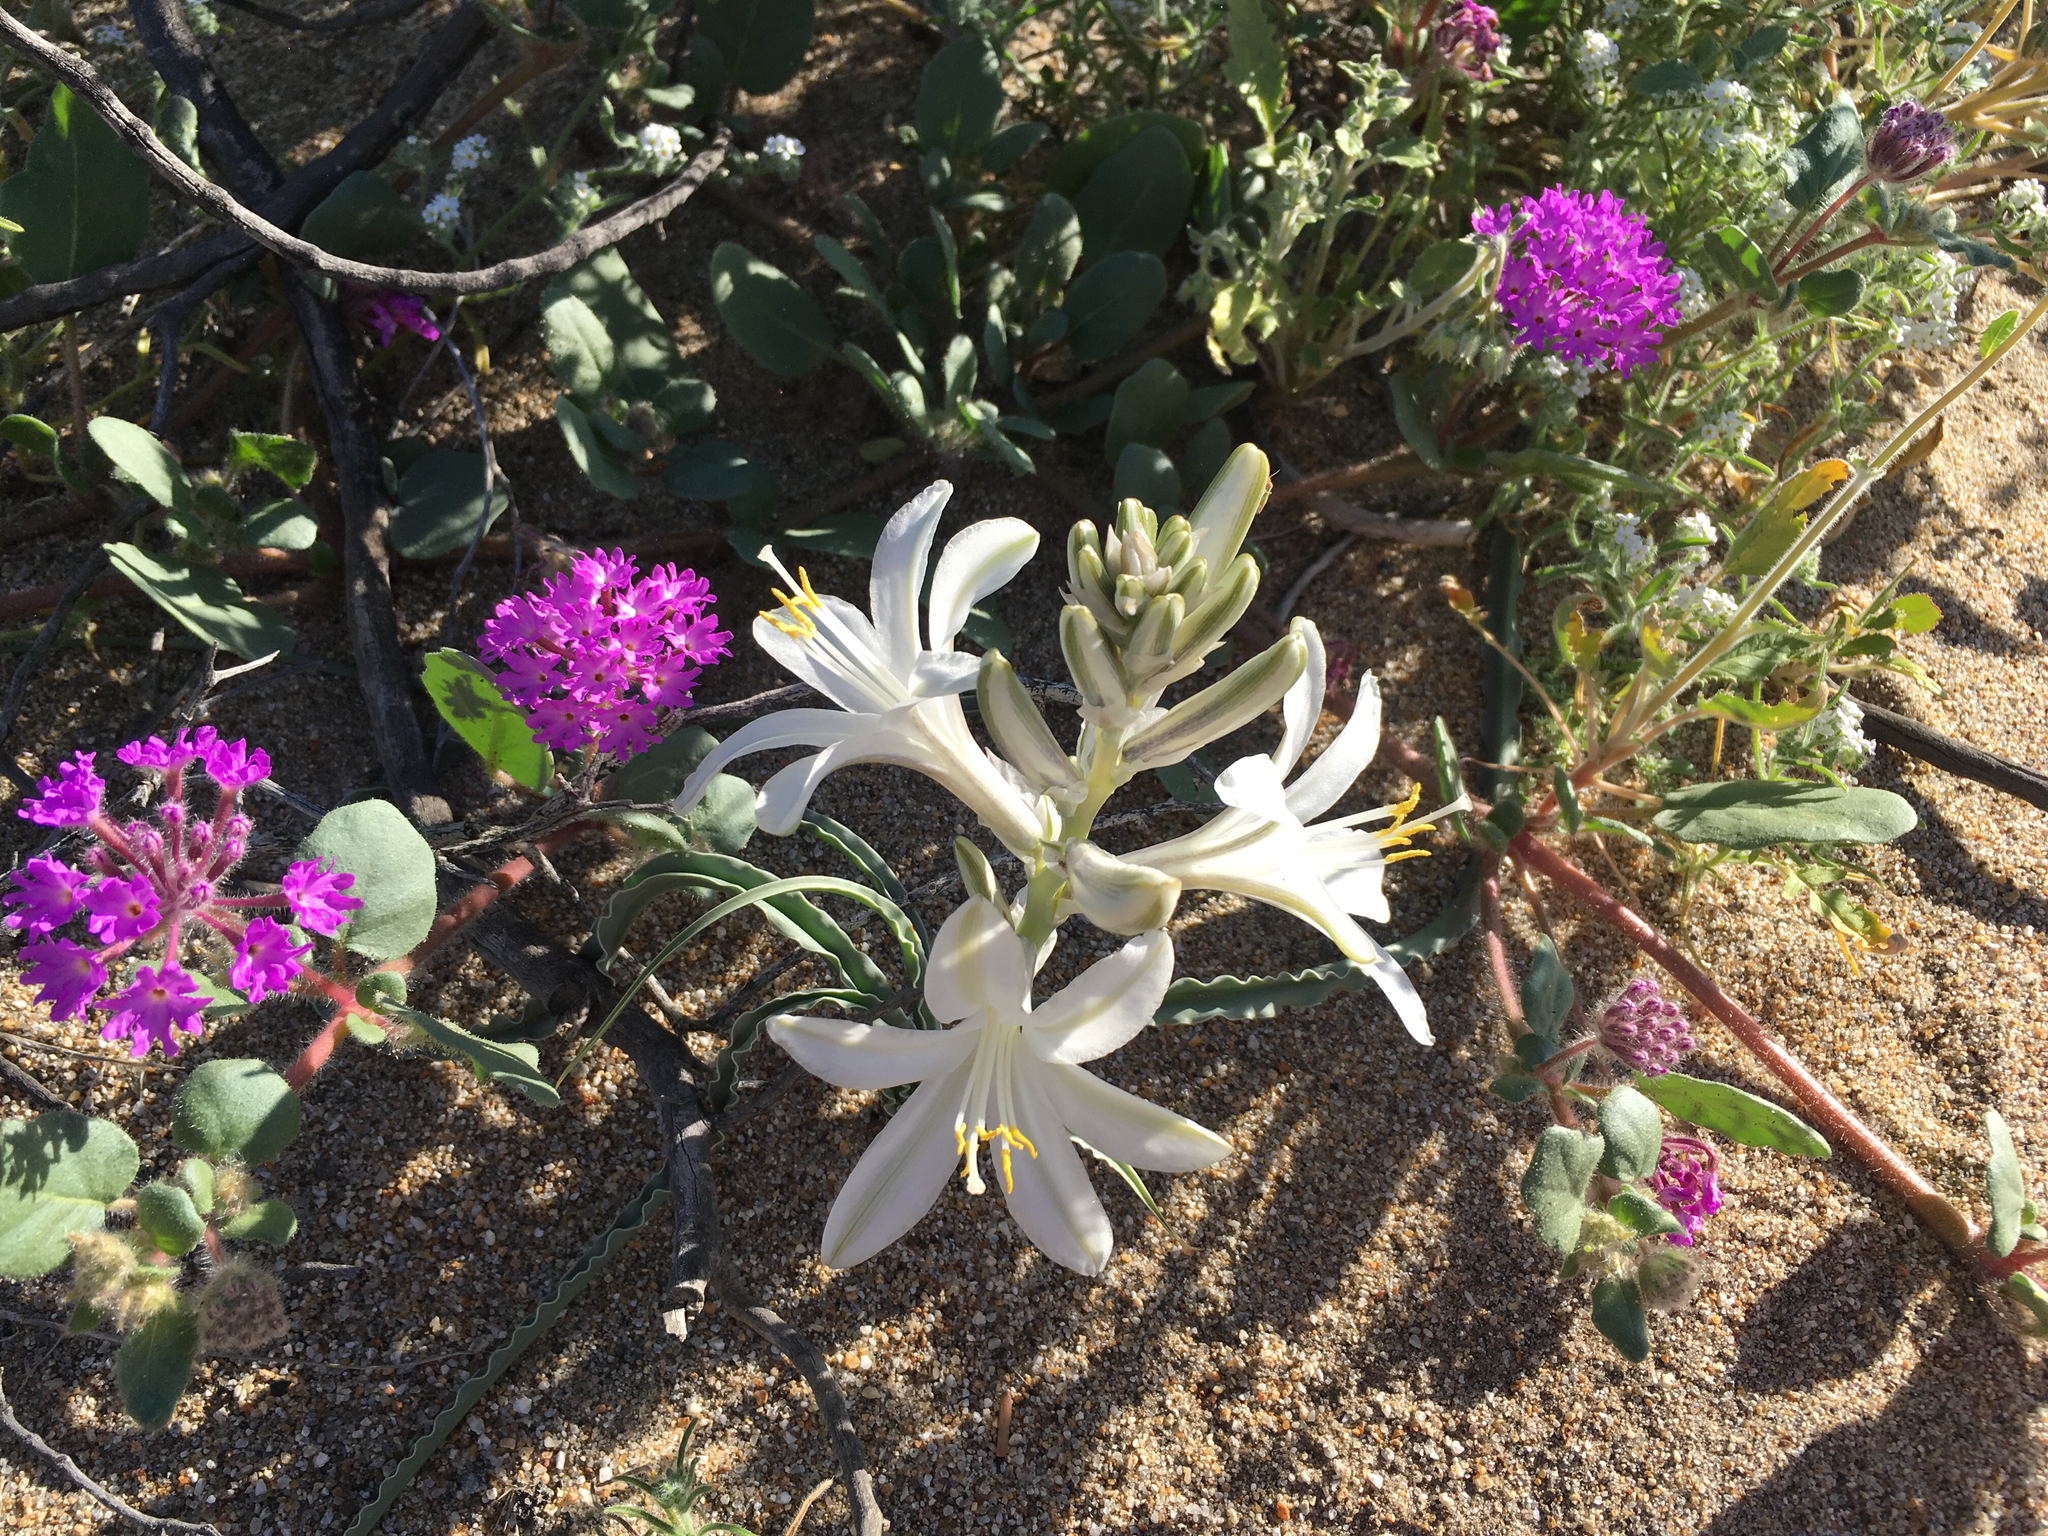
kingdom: Plantae
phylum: Tracheophyta
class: Liliopsida
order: Asparagales
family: Asparagaceae
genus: Hesperocallis
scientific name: Hesperocallis undulata
